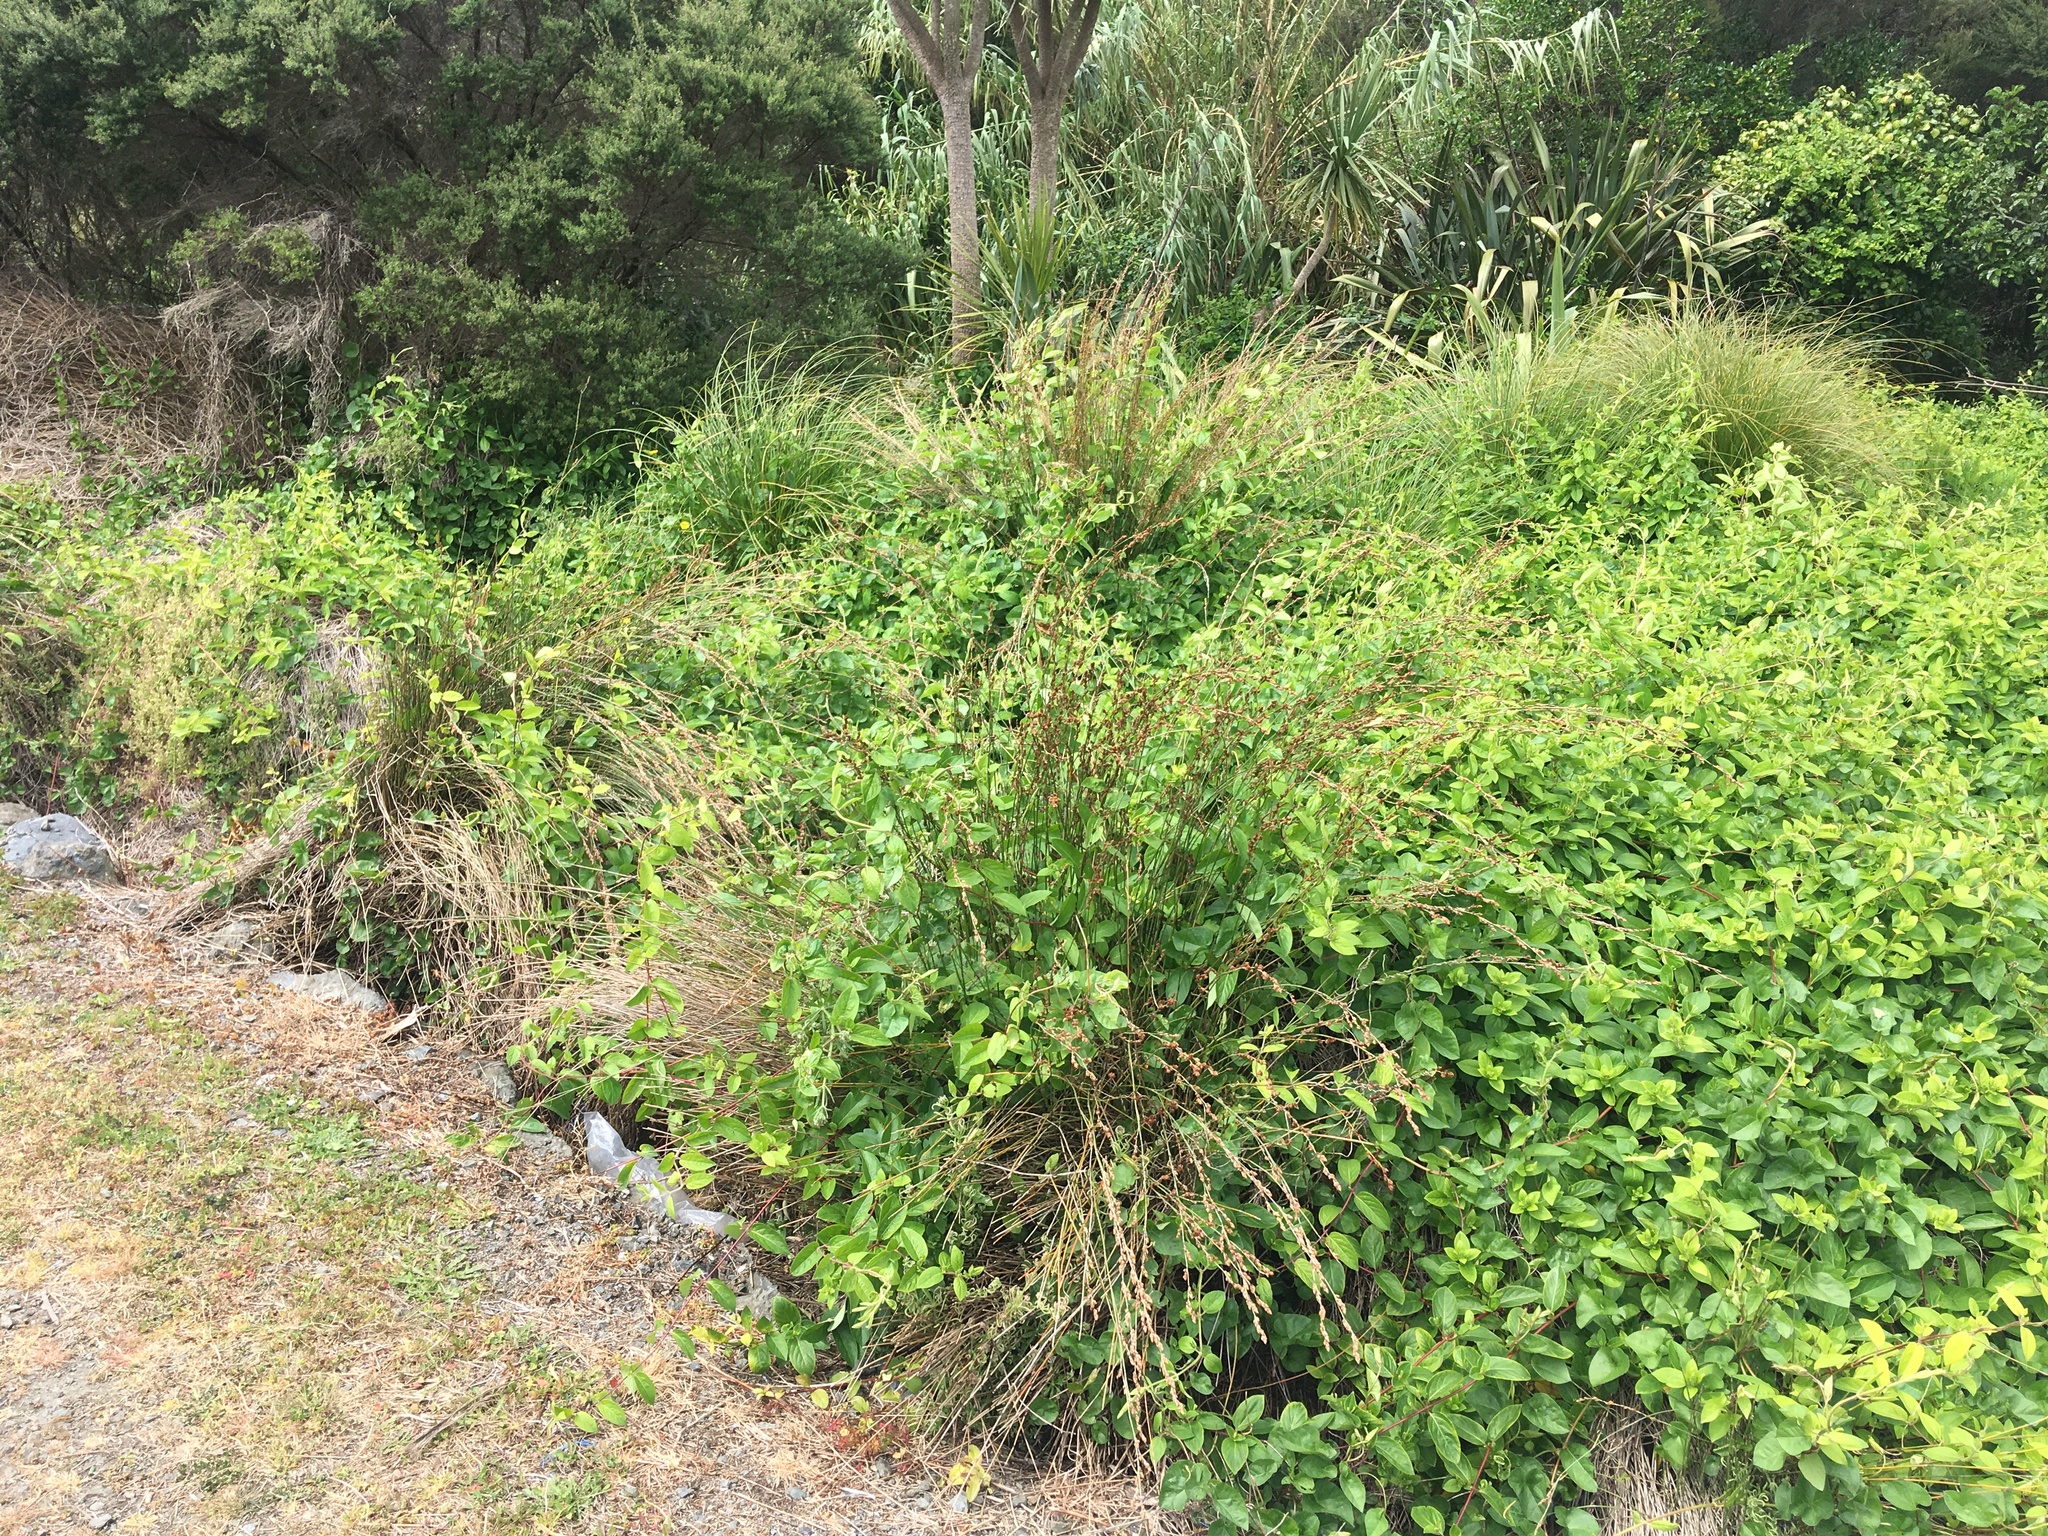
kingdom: Plantae
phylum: Tracheophyta
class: Liliopsida
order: Poales
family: Poaceae
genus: Arundo
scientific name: Arundo donax
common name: Giant reed
